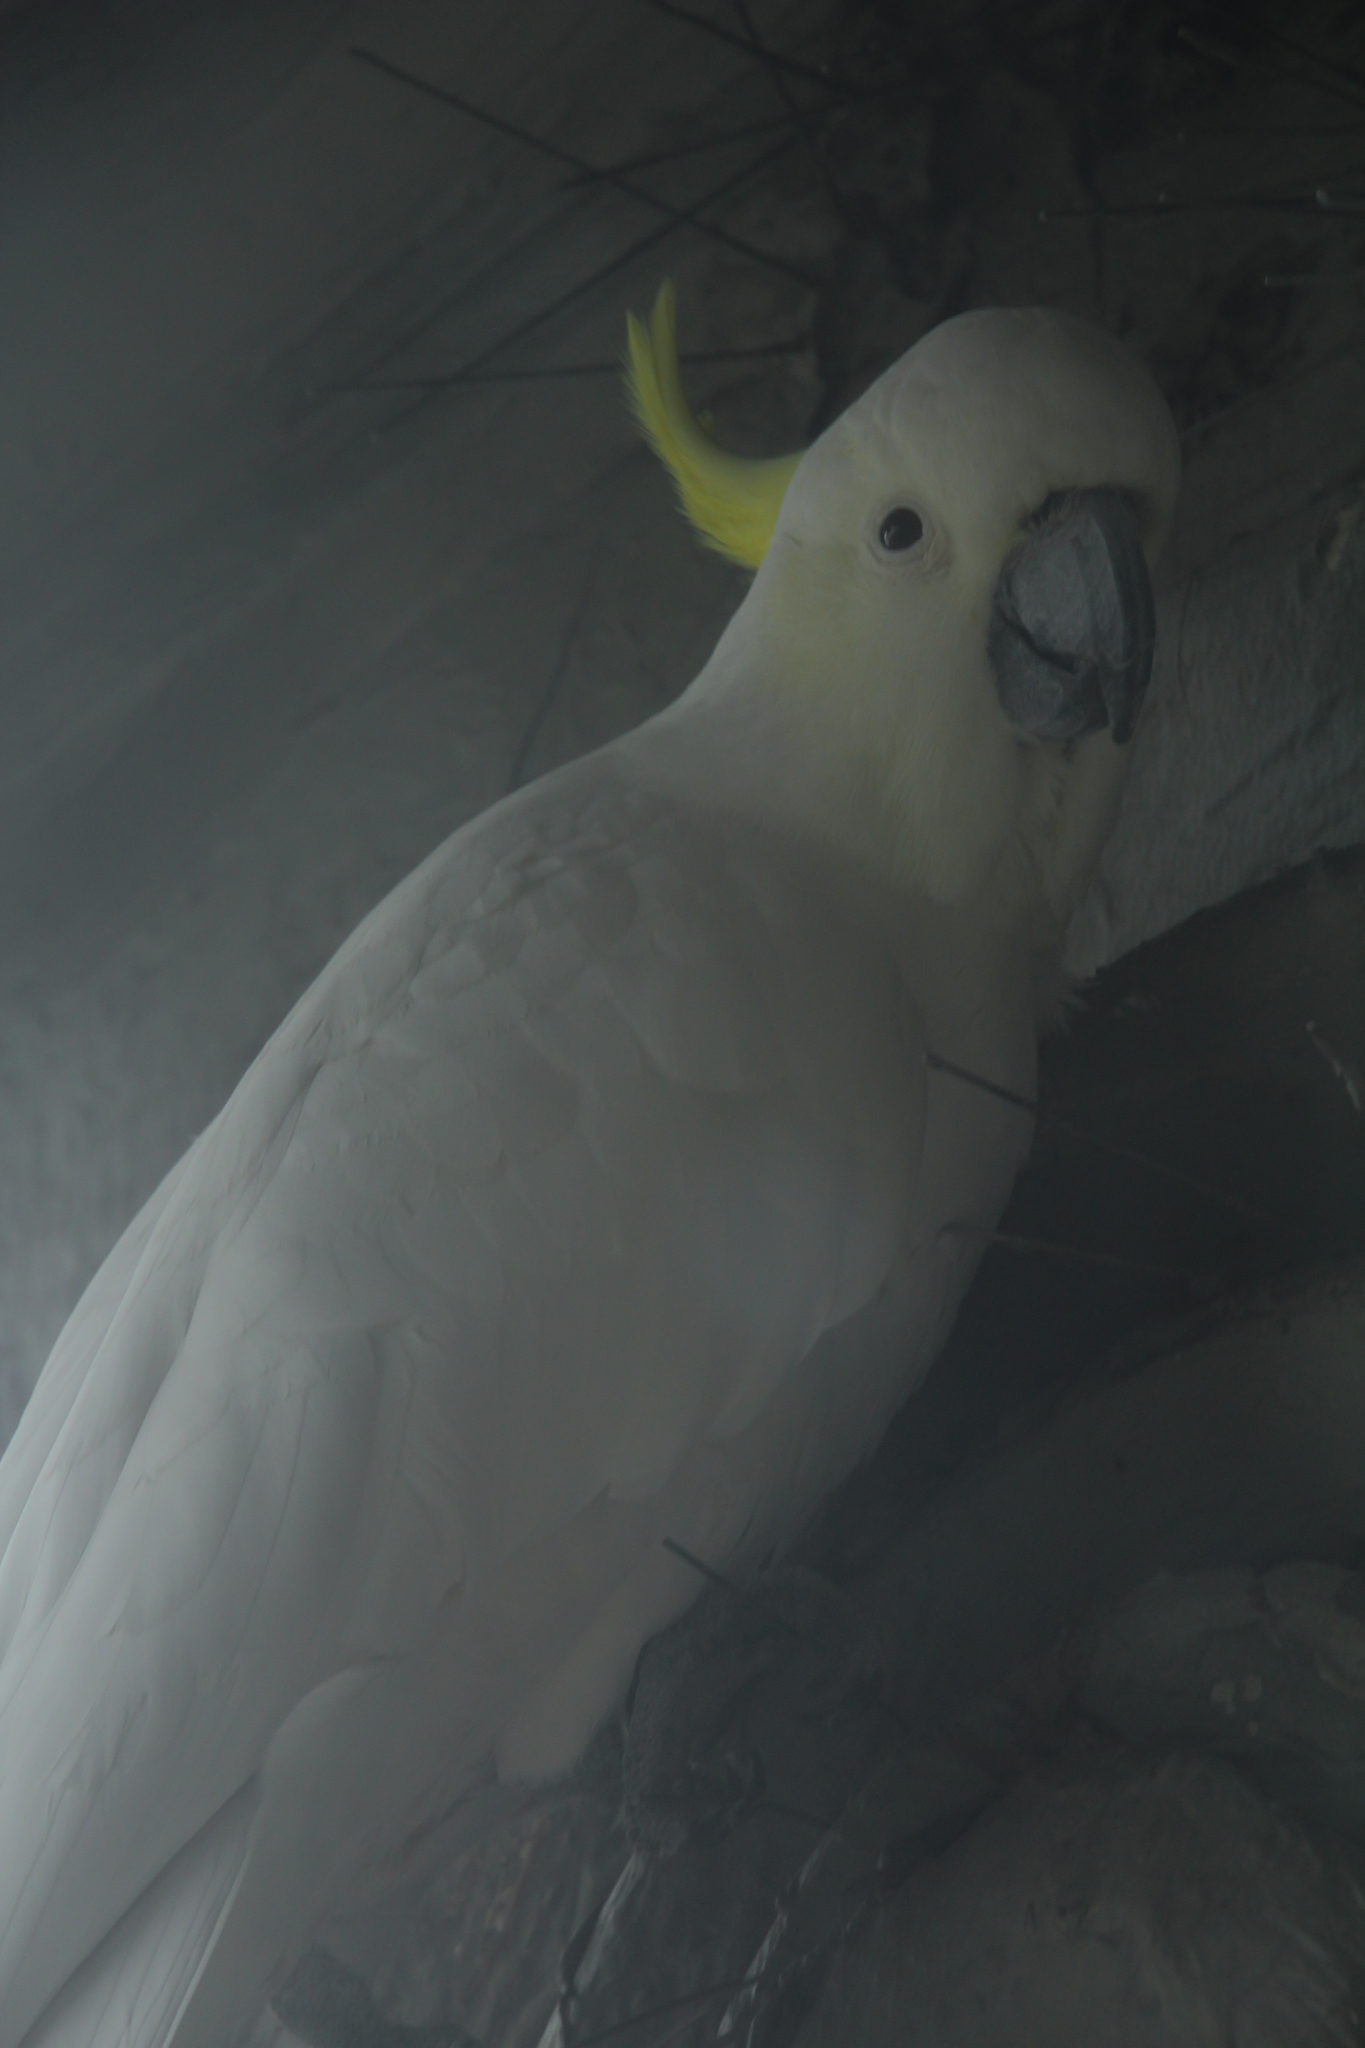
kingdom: Animalia
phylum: Chordata
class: Aves
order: Psittaciformes
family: Psittacidae
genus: Cacatua
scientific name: Cacatua galerita
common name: Sulphur-crested cockatoo
